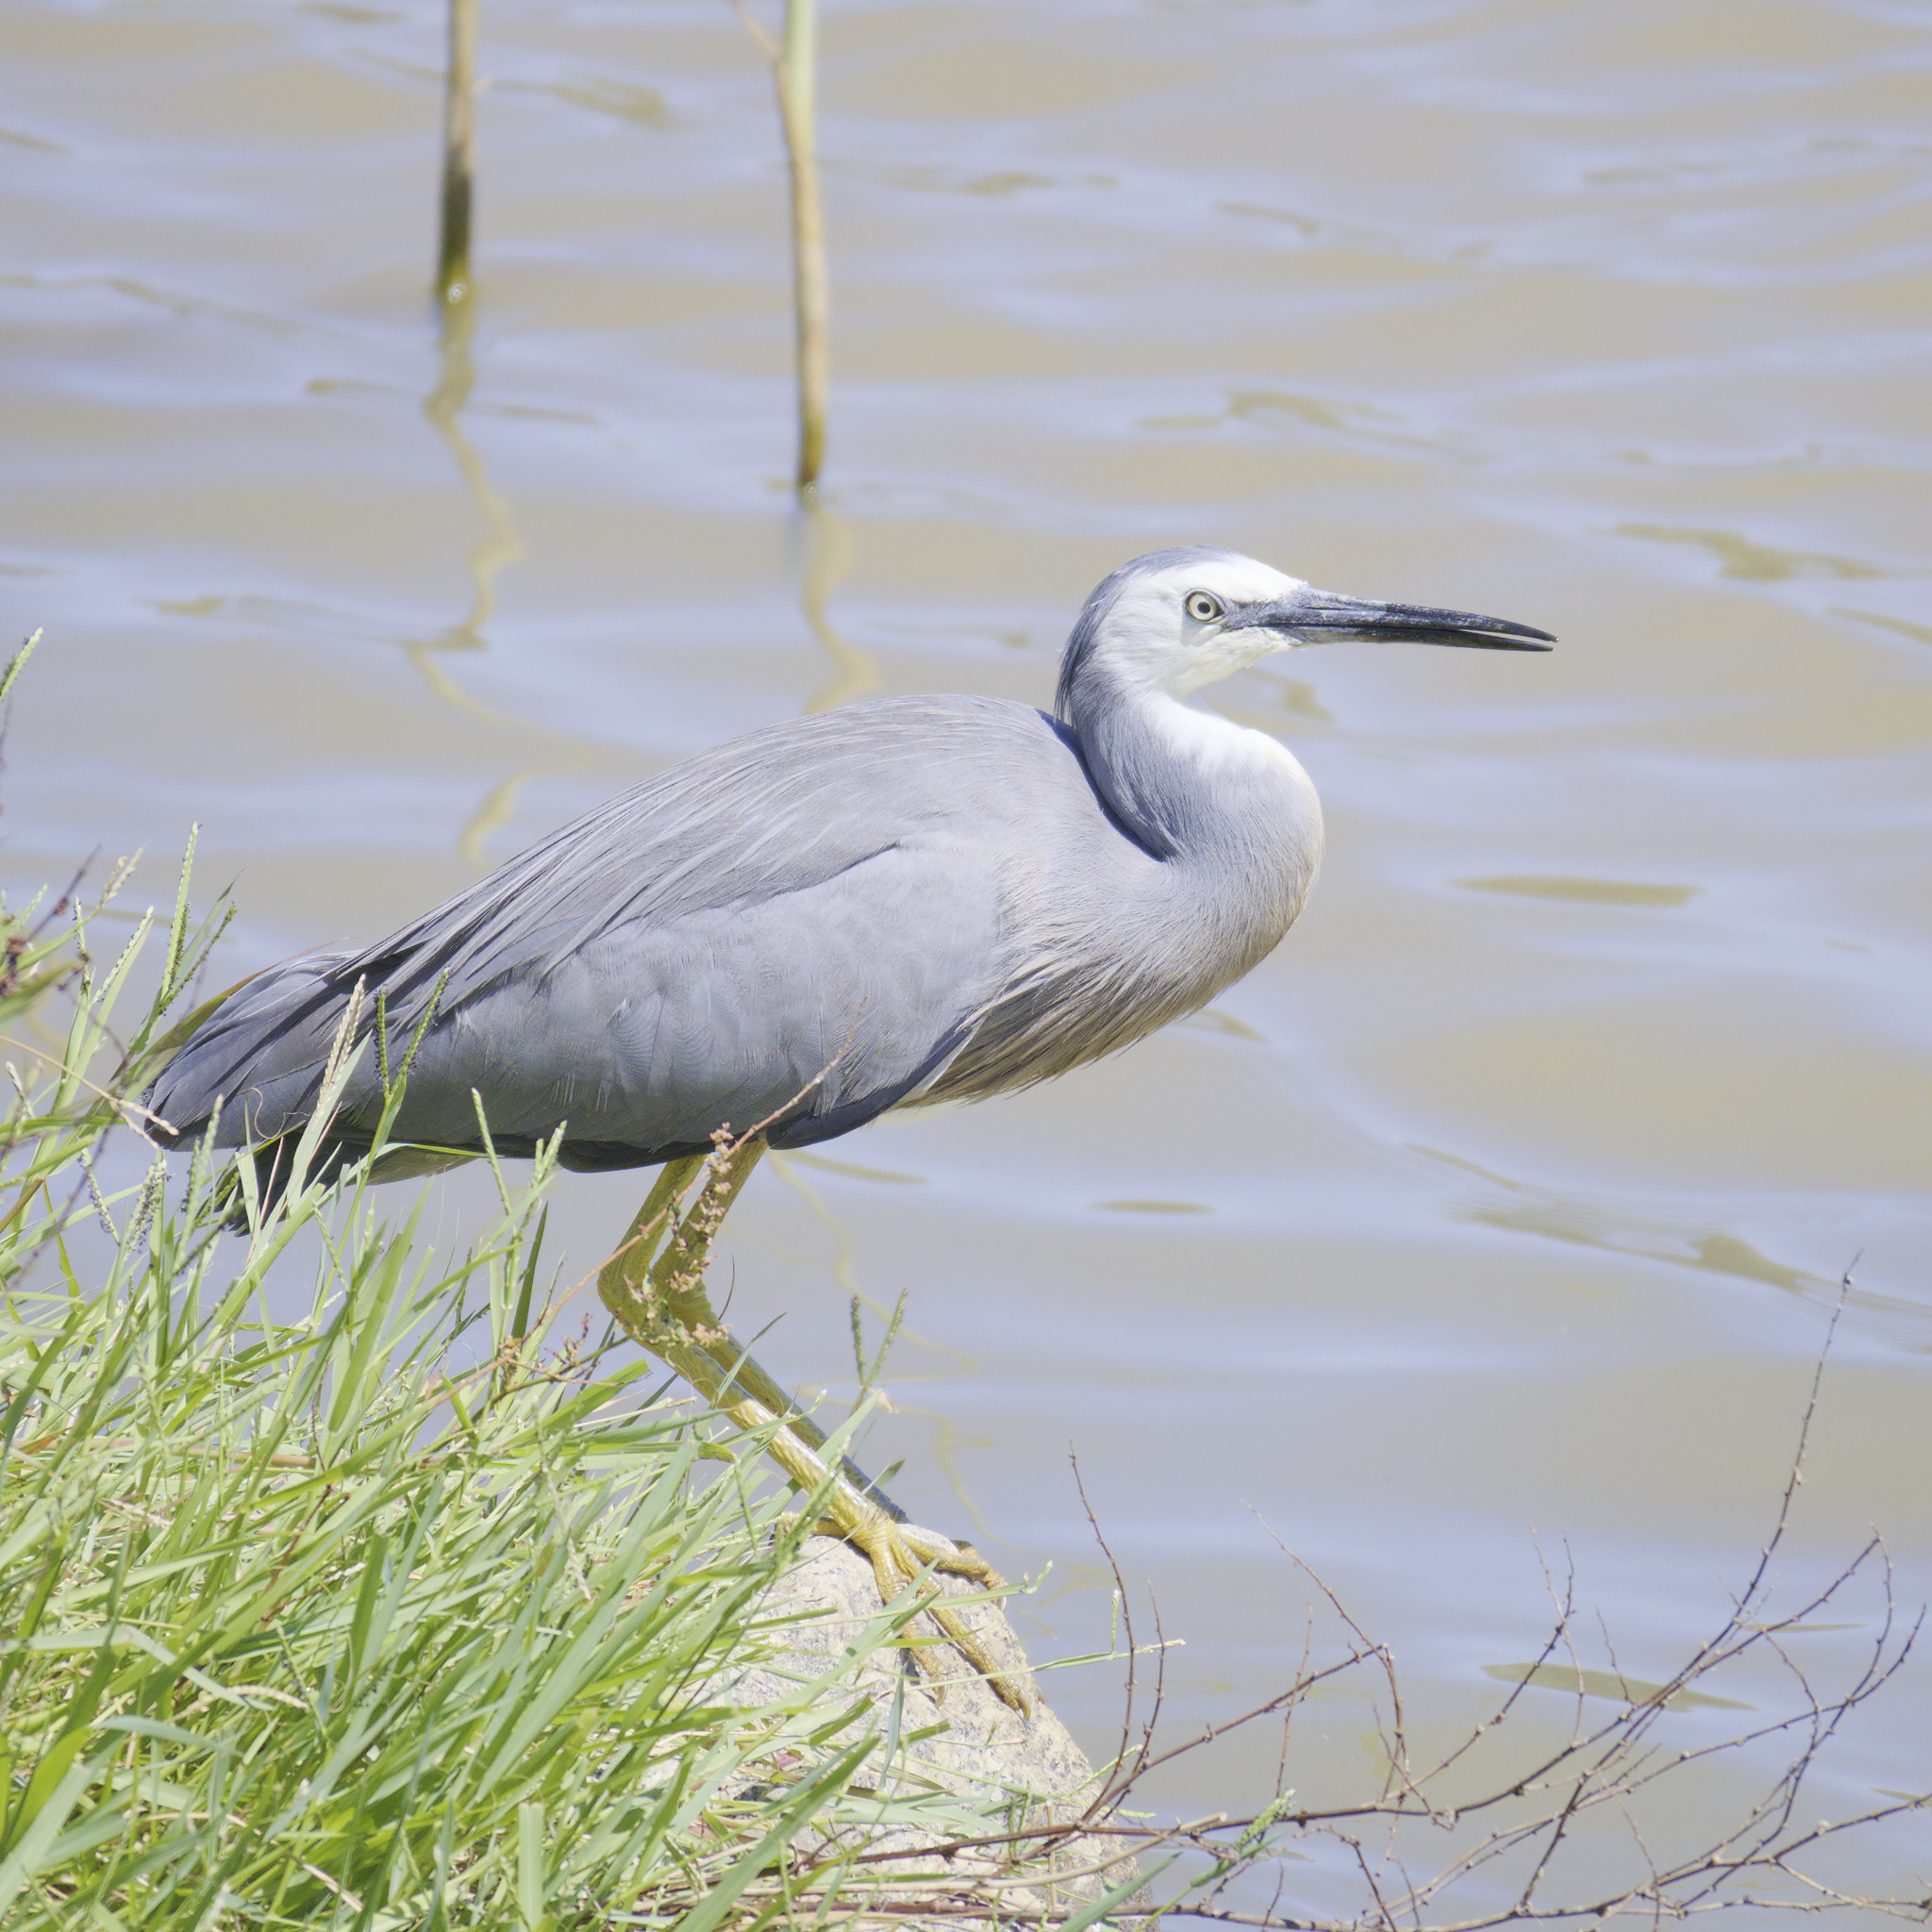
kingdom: Animalia
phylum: Chordata
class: Aves
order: Pelecaniformes
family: Ardeidae
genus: Egretta
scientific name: Egretta novaehollandiae
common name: White-faced heron
